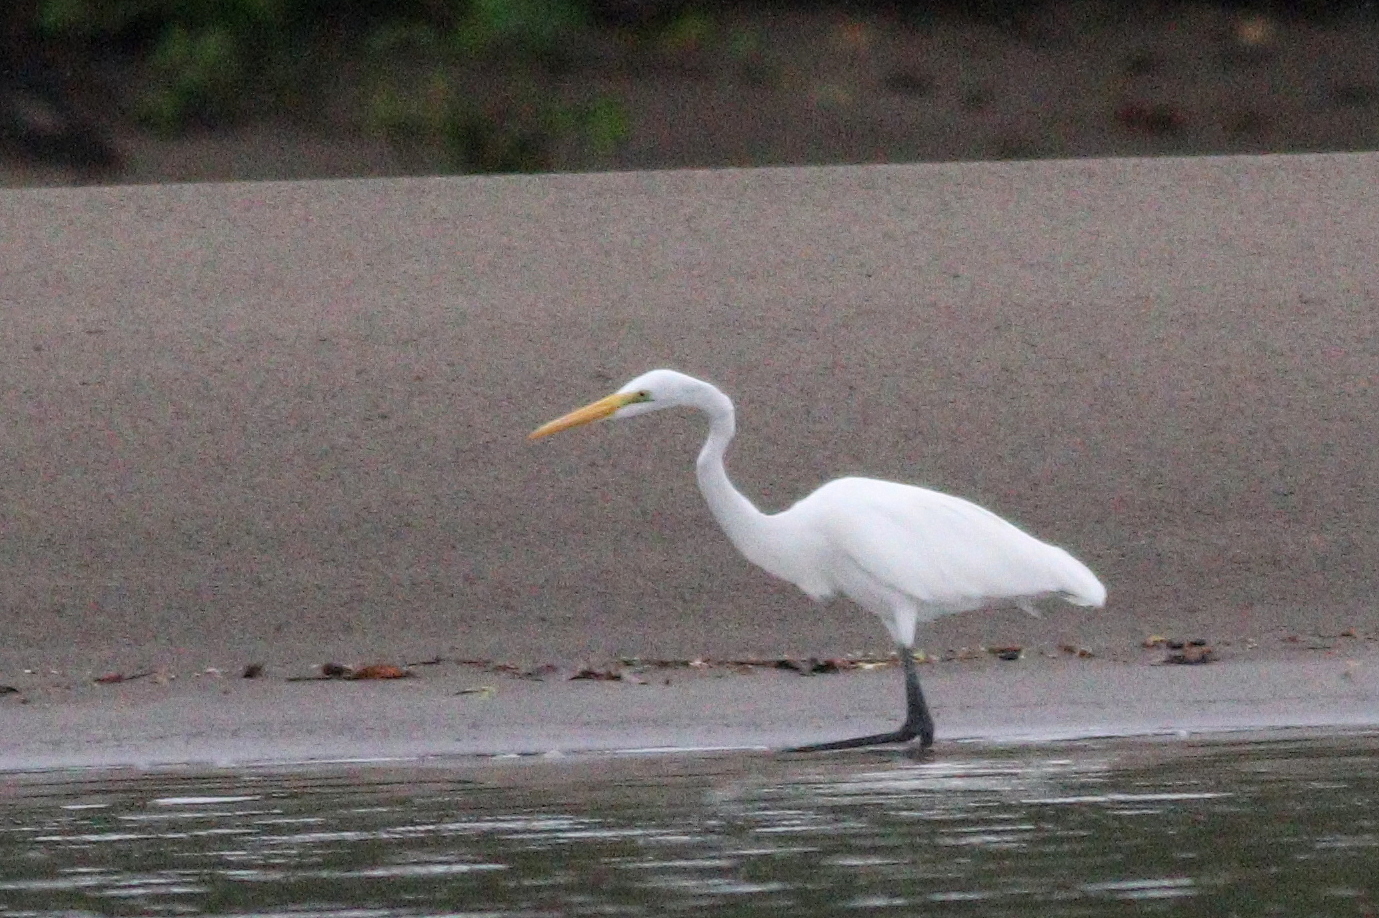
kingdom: Animalia
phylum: Chordata
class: Aves
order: Pelecaniformes
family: Ardeidae
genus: Ardea
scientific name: Ardea alba
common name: Great egret
